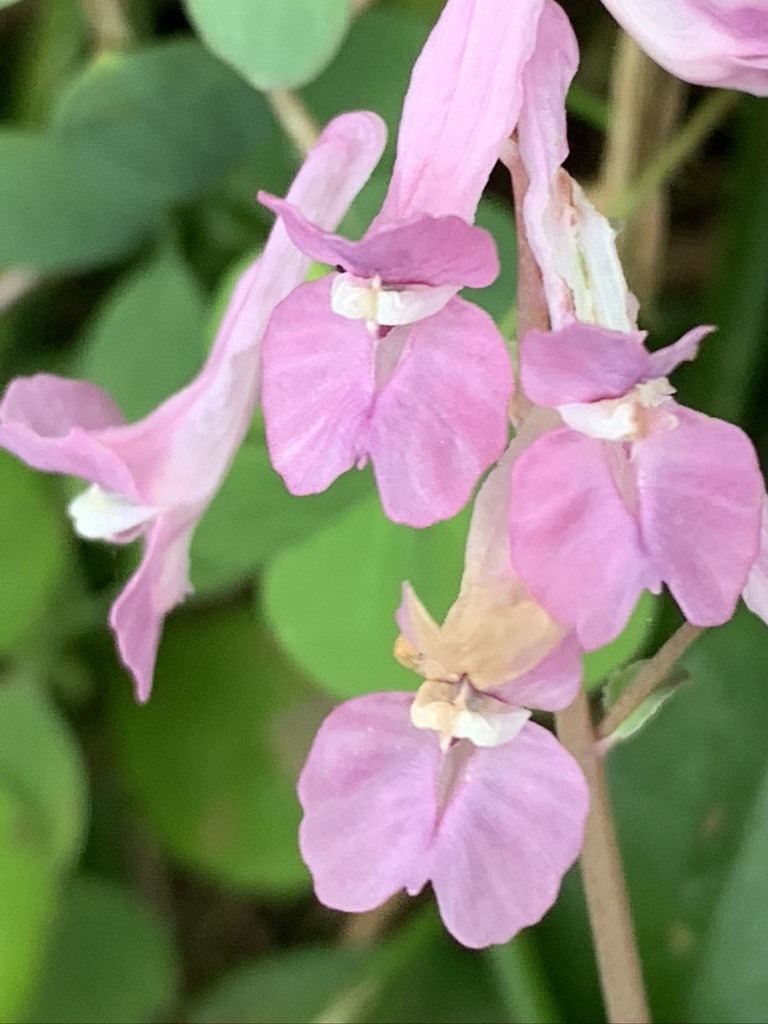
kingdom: Plantae
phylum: Tracheophyta
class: Magnoliopsida
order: Ranunculales
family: Papaveraceae
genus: Corydalis
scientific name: Corydalis decumbens
